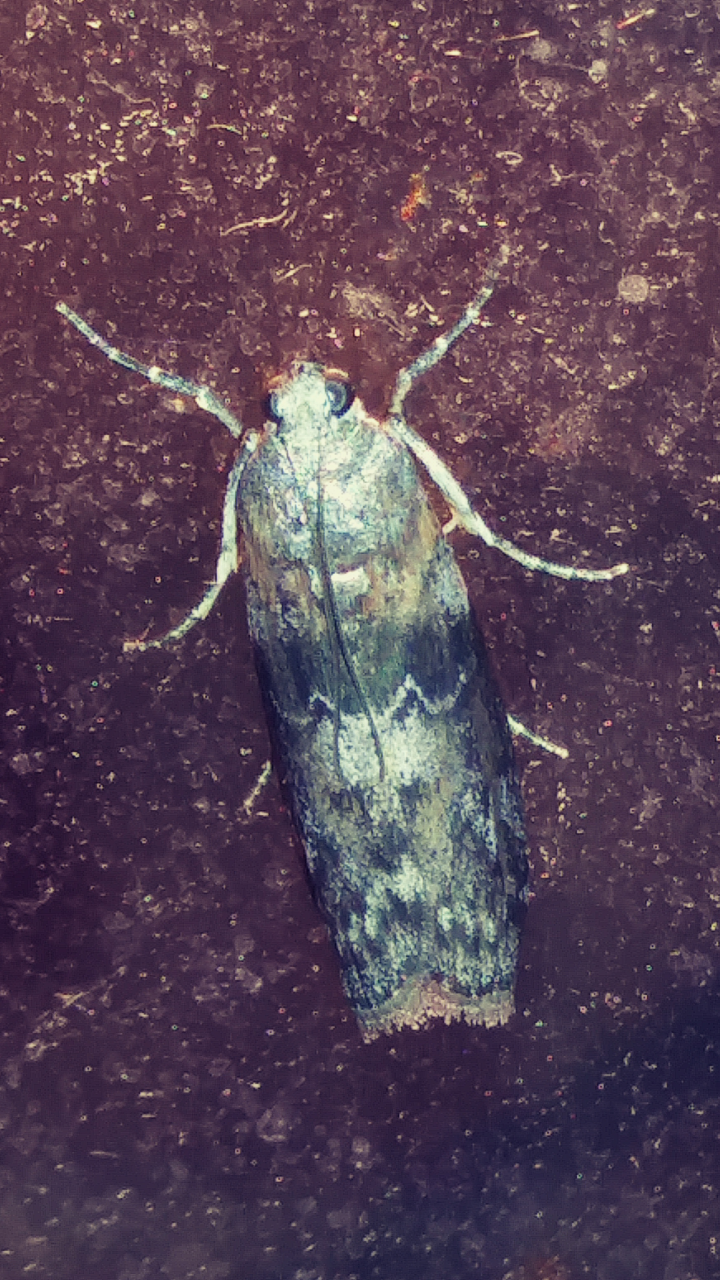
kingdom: Animalia
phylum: Arthropoda
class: Insecta
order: Lepidoptera
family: Pyralidae
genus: Sciota
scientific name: Sciota subcaesiella
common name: Locust leafroller
